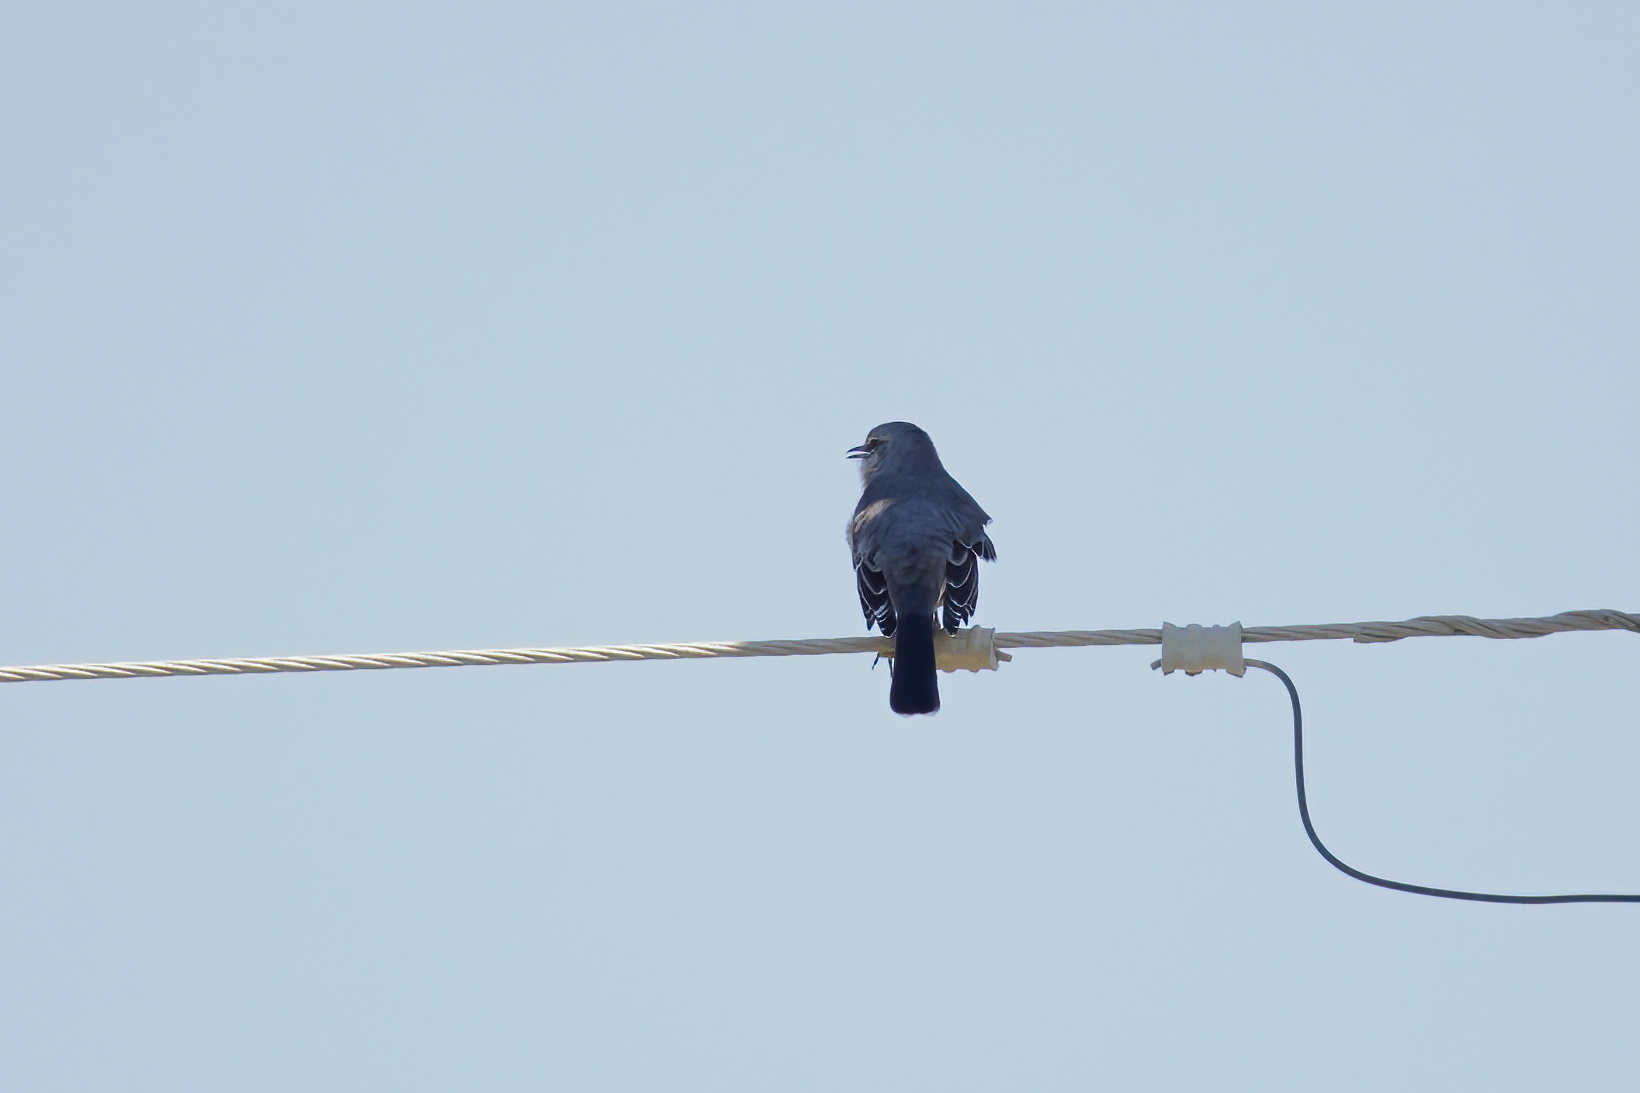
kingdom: Animalia
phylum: Chordata
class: Aves
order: Passeriformes
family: Mimidae
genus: Mimus
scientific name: Mimus polyglottos
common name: Northern mockingbird
